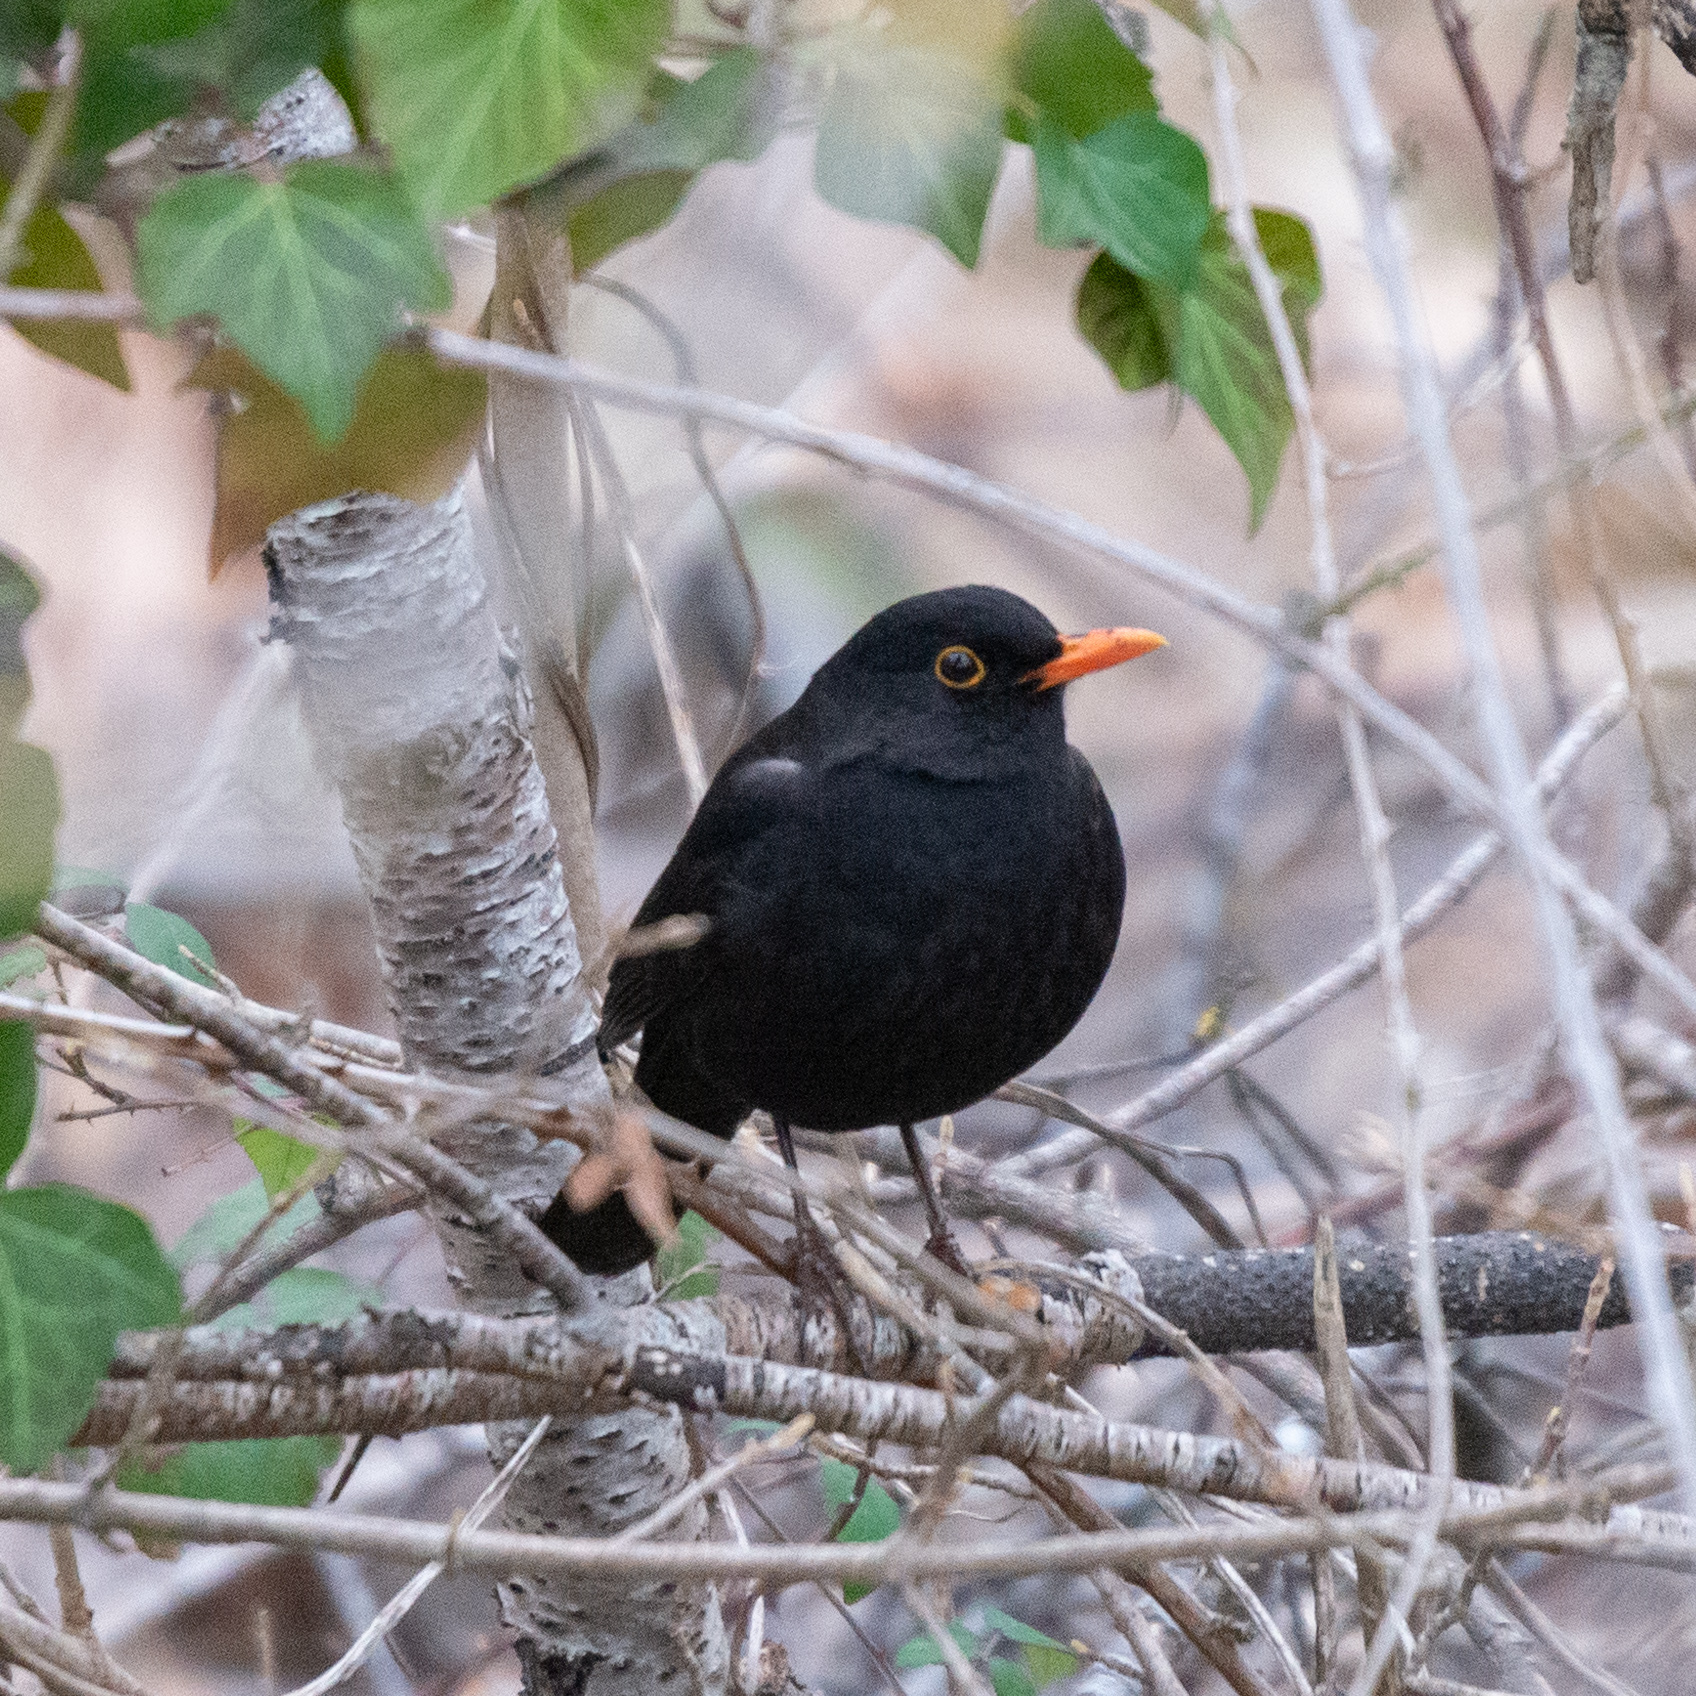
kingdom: Animalia
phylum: Chordata
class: Aves
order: Passeriformes
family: Turdidae
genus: Turdus
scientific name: Turdus merula
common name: Common blackbird
